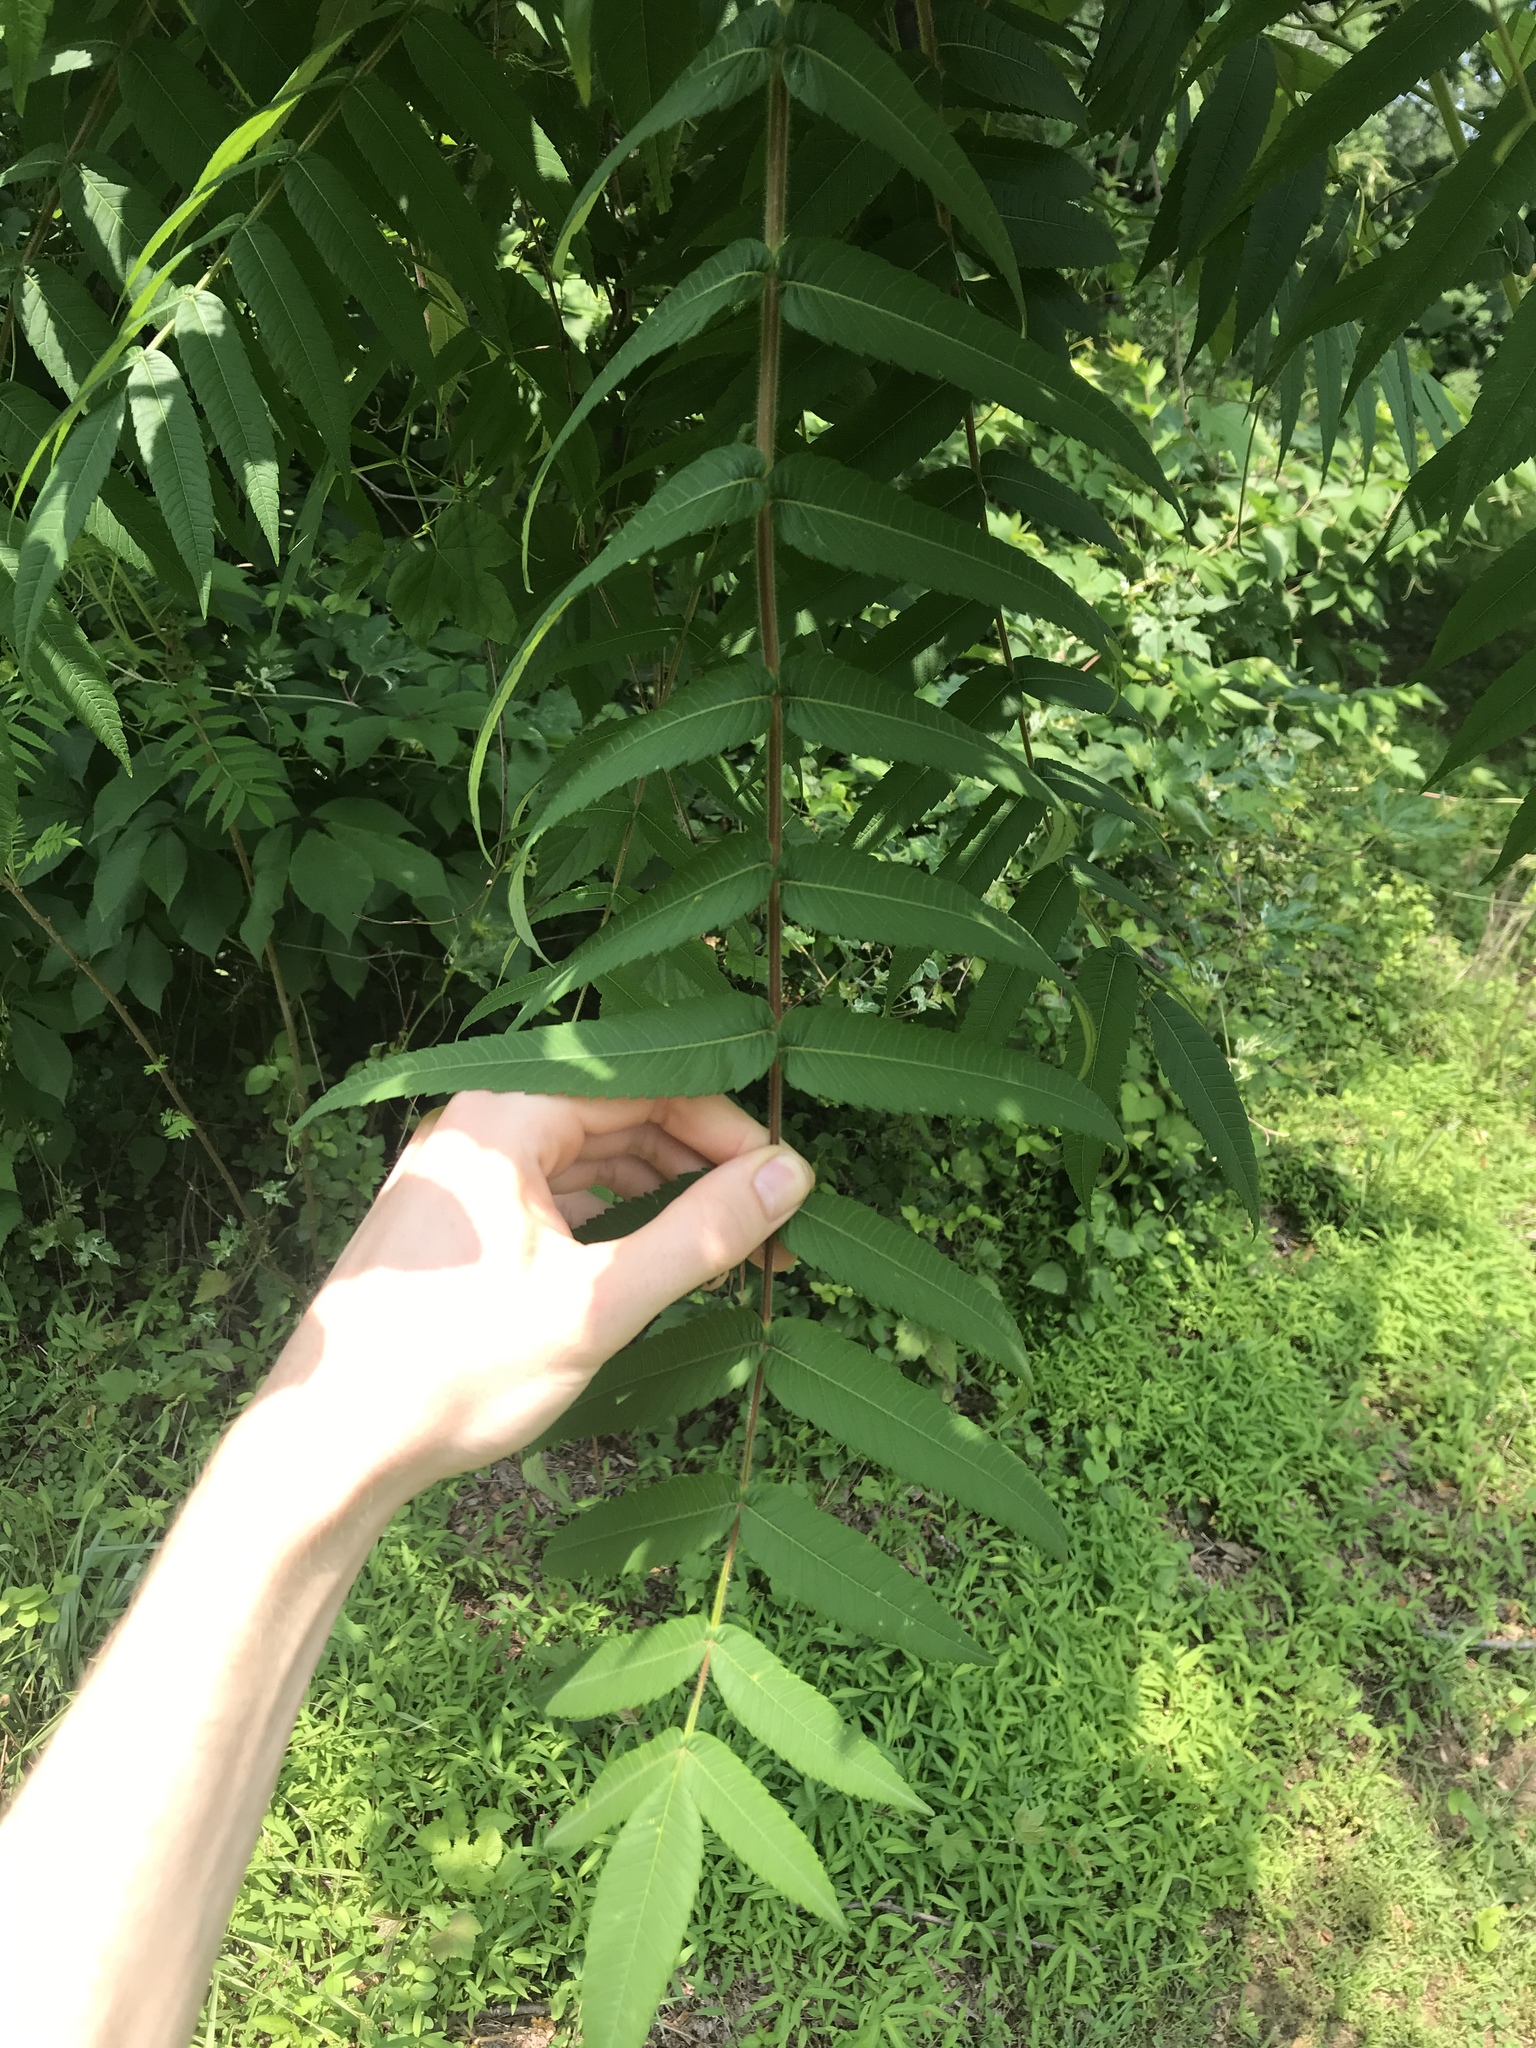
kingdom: Plantae
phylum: Tracheophyta
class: Magnoliopsida
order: Sapindales
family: Anacardiaceae
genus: Rhus
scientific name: Rhus typhina
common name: Staghorn sumac
